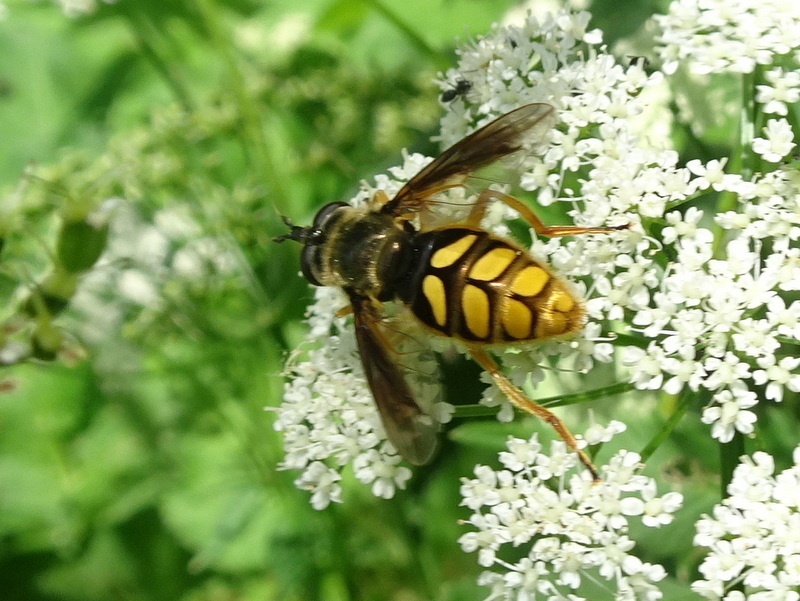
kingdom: Animalia
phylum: Arthropoda
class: Insecta
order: Diptera
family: Syrphidae
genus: Somula
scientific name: Somula decora
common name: Spotted wood fly
